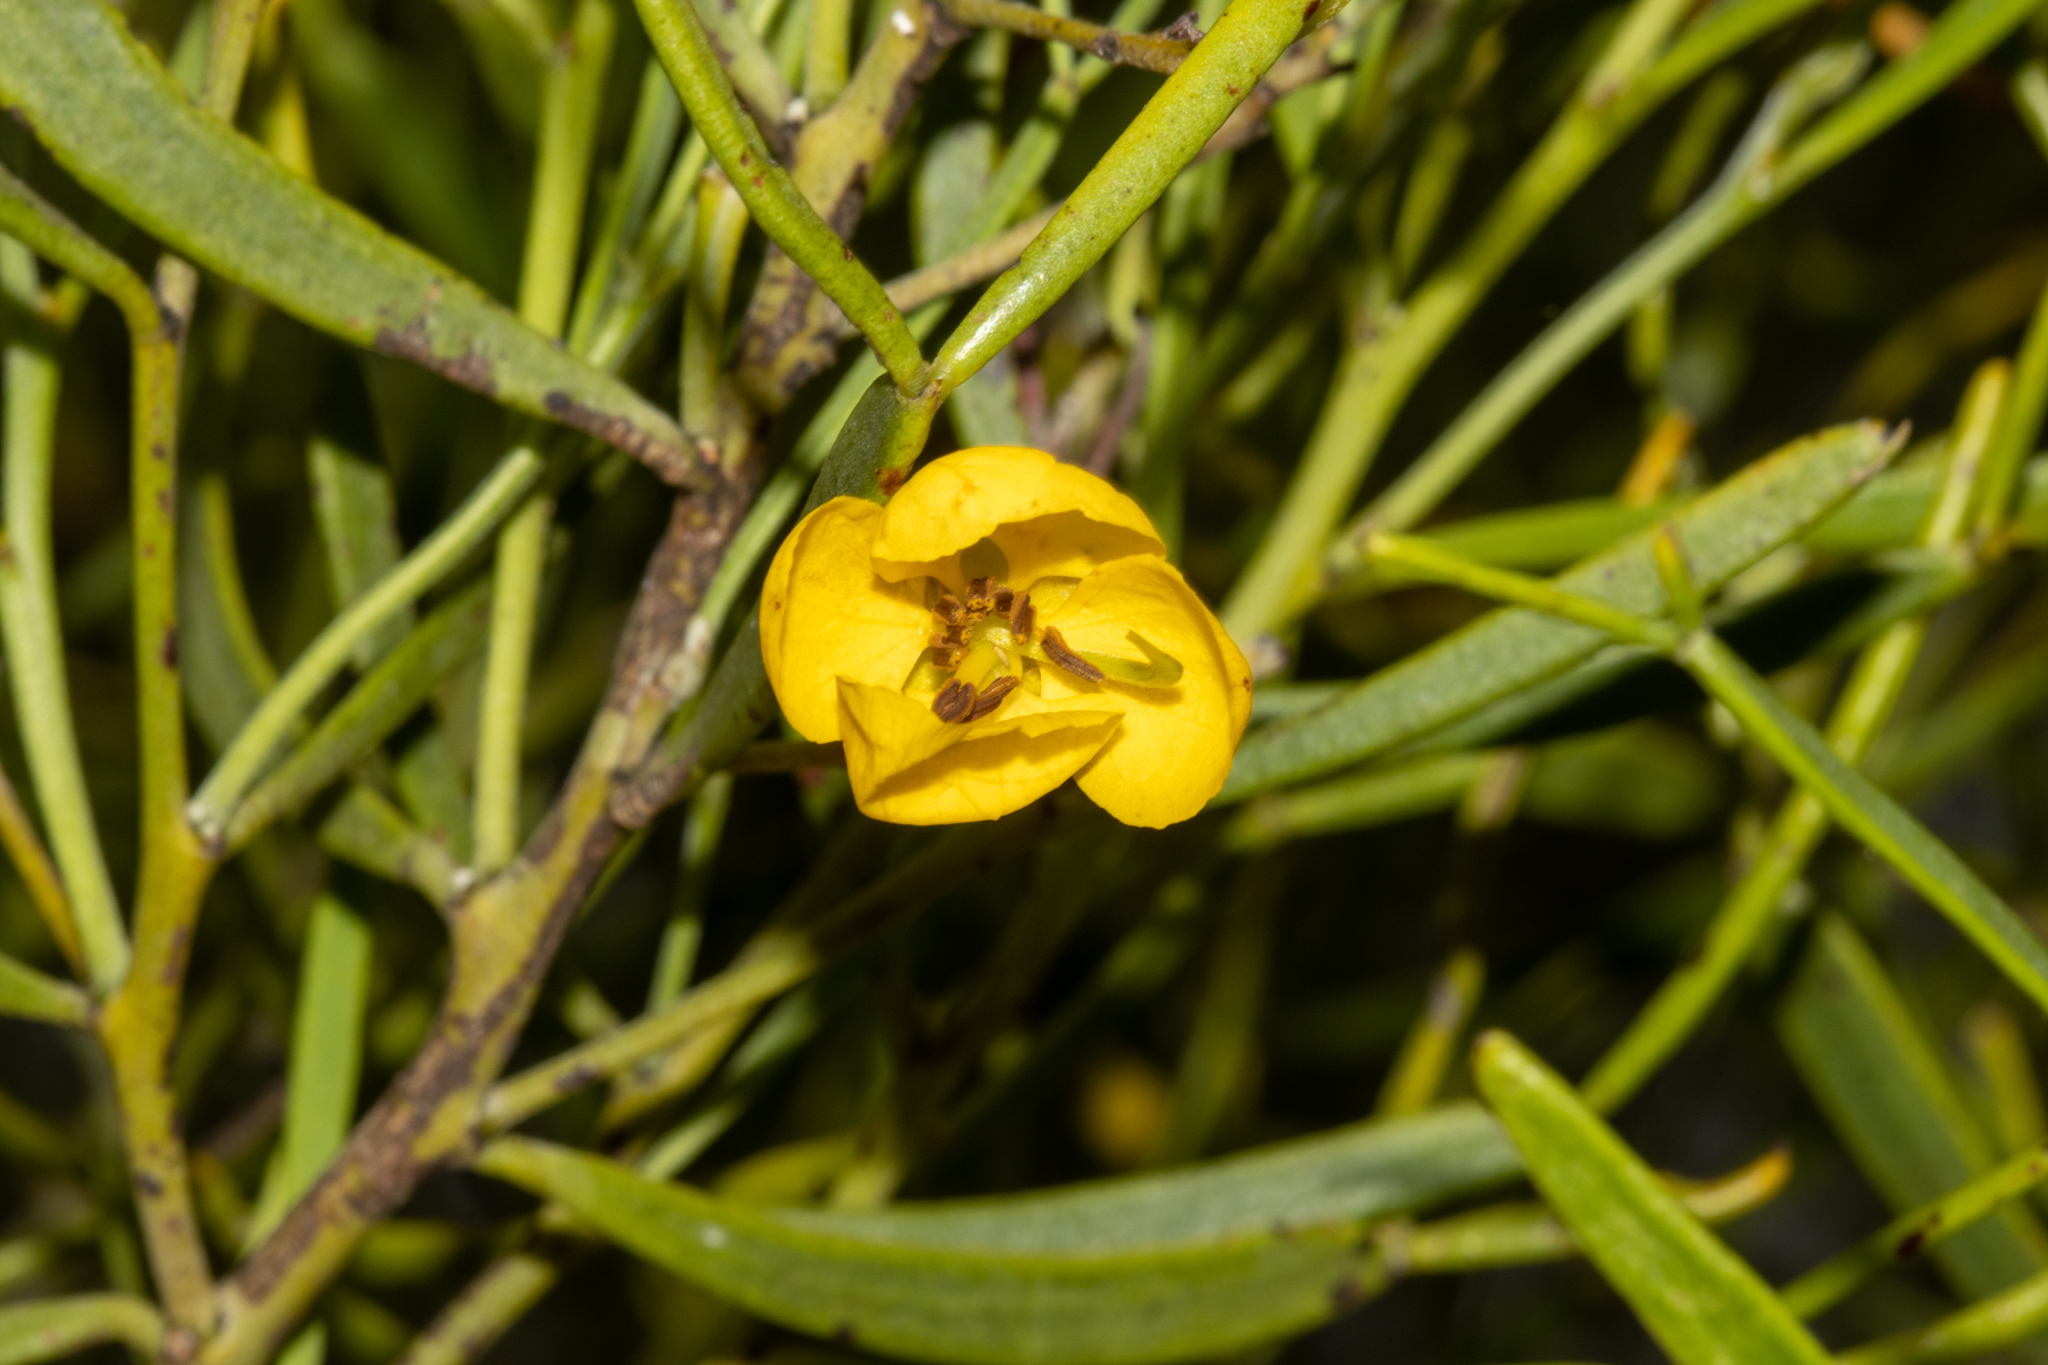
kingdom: Plantae
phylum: Tracheophyta
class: Magnoliopsida
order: Fabales
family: Fabaceae
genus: Senna
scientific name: Senna artemisioides
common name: Burnt-leaved acacia
